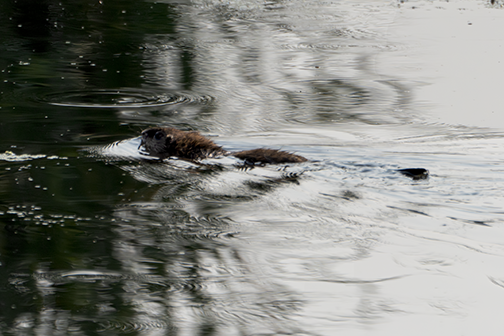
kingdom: Animalia
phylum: Chordata
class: Mammalia
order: Rodentia
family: Cricetidae
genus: Ondatra
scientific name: Ondatra zibethicus
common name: Muskrat
